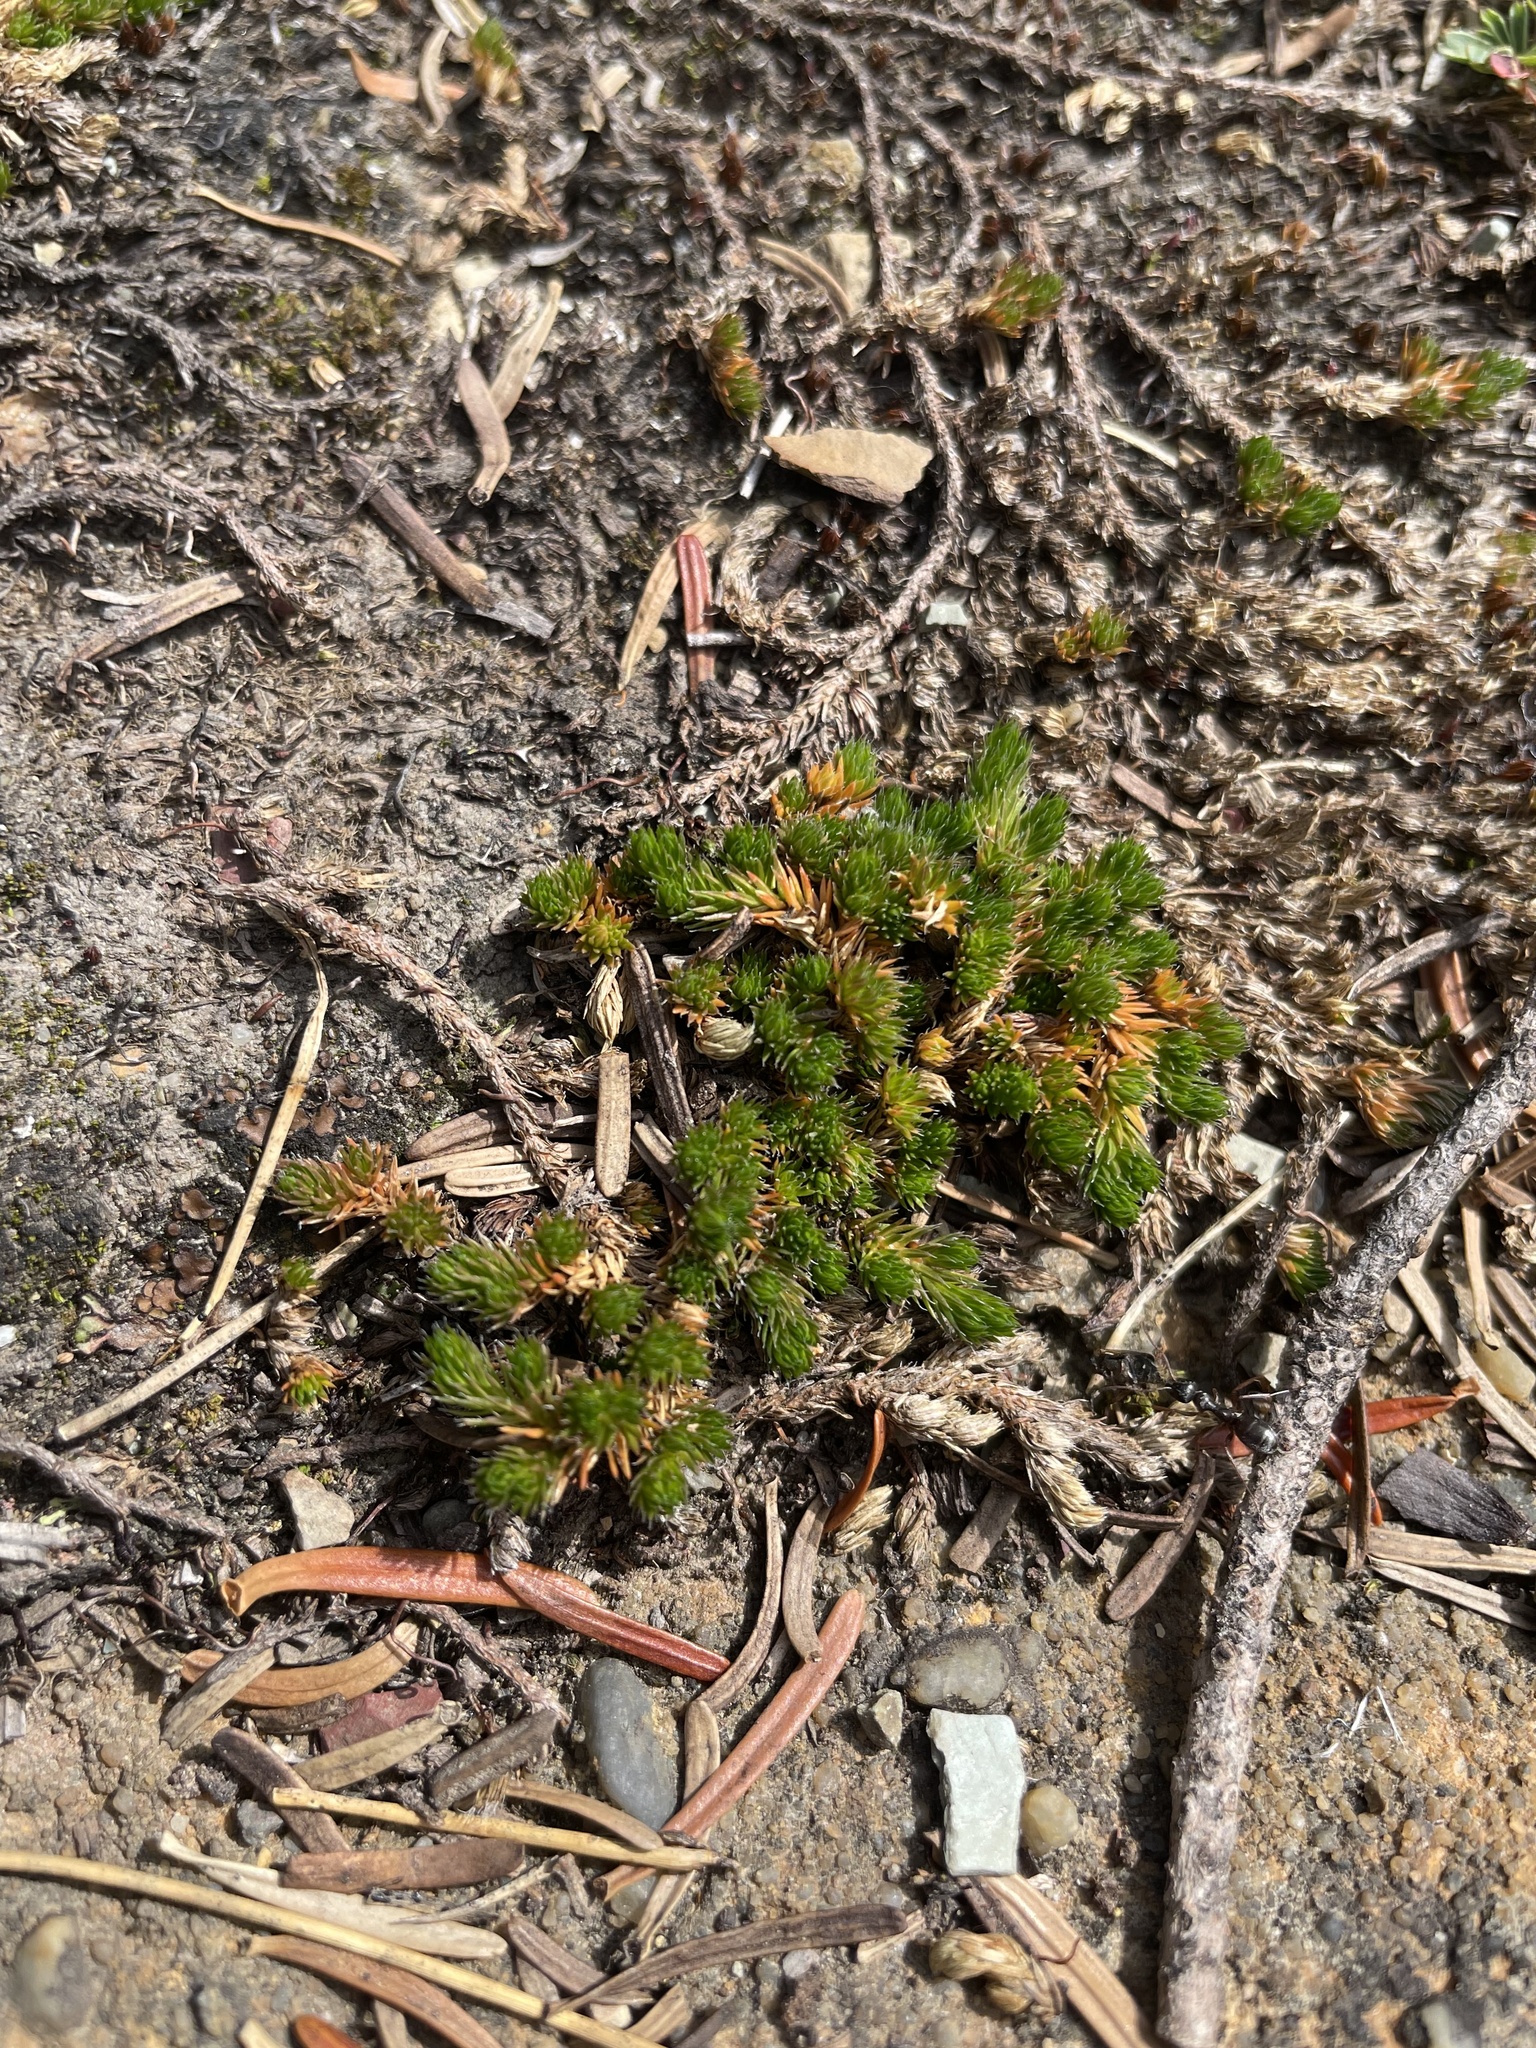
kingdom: Plantae
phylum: Tracheophyta
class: Lycopodiopsida
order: Selaginellales
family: Selaginellaceae
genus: Selaginella
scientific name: Selaginella densa
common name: Mountain spike-moss
